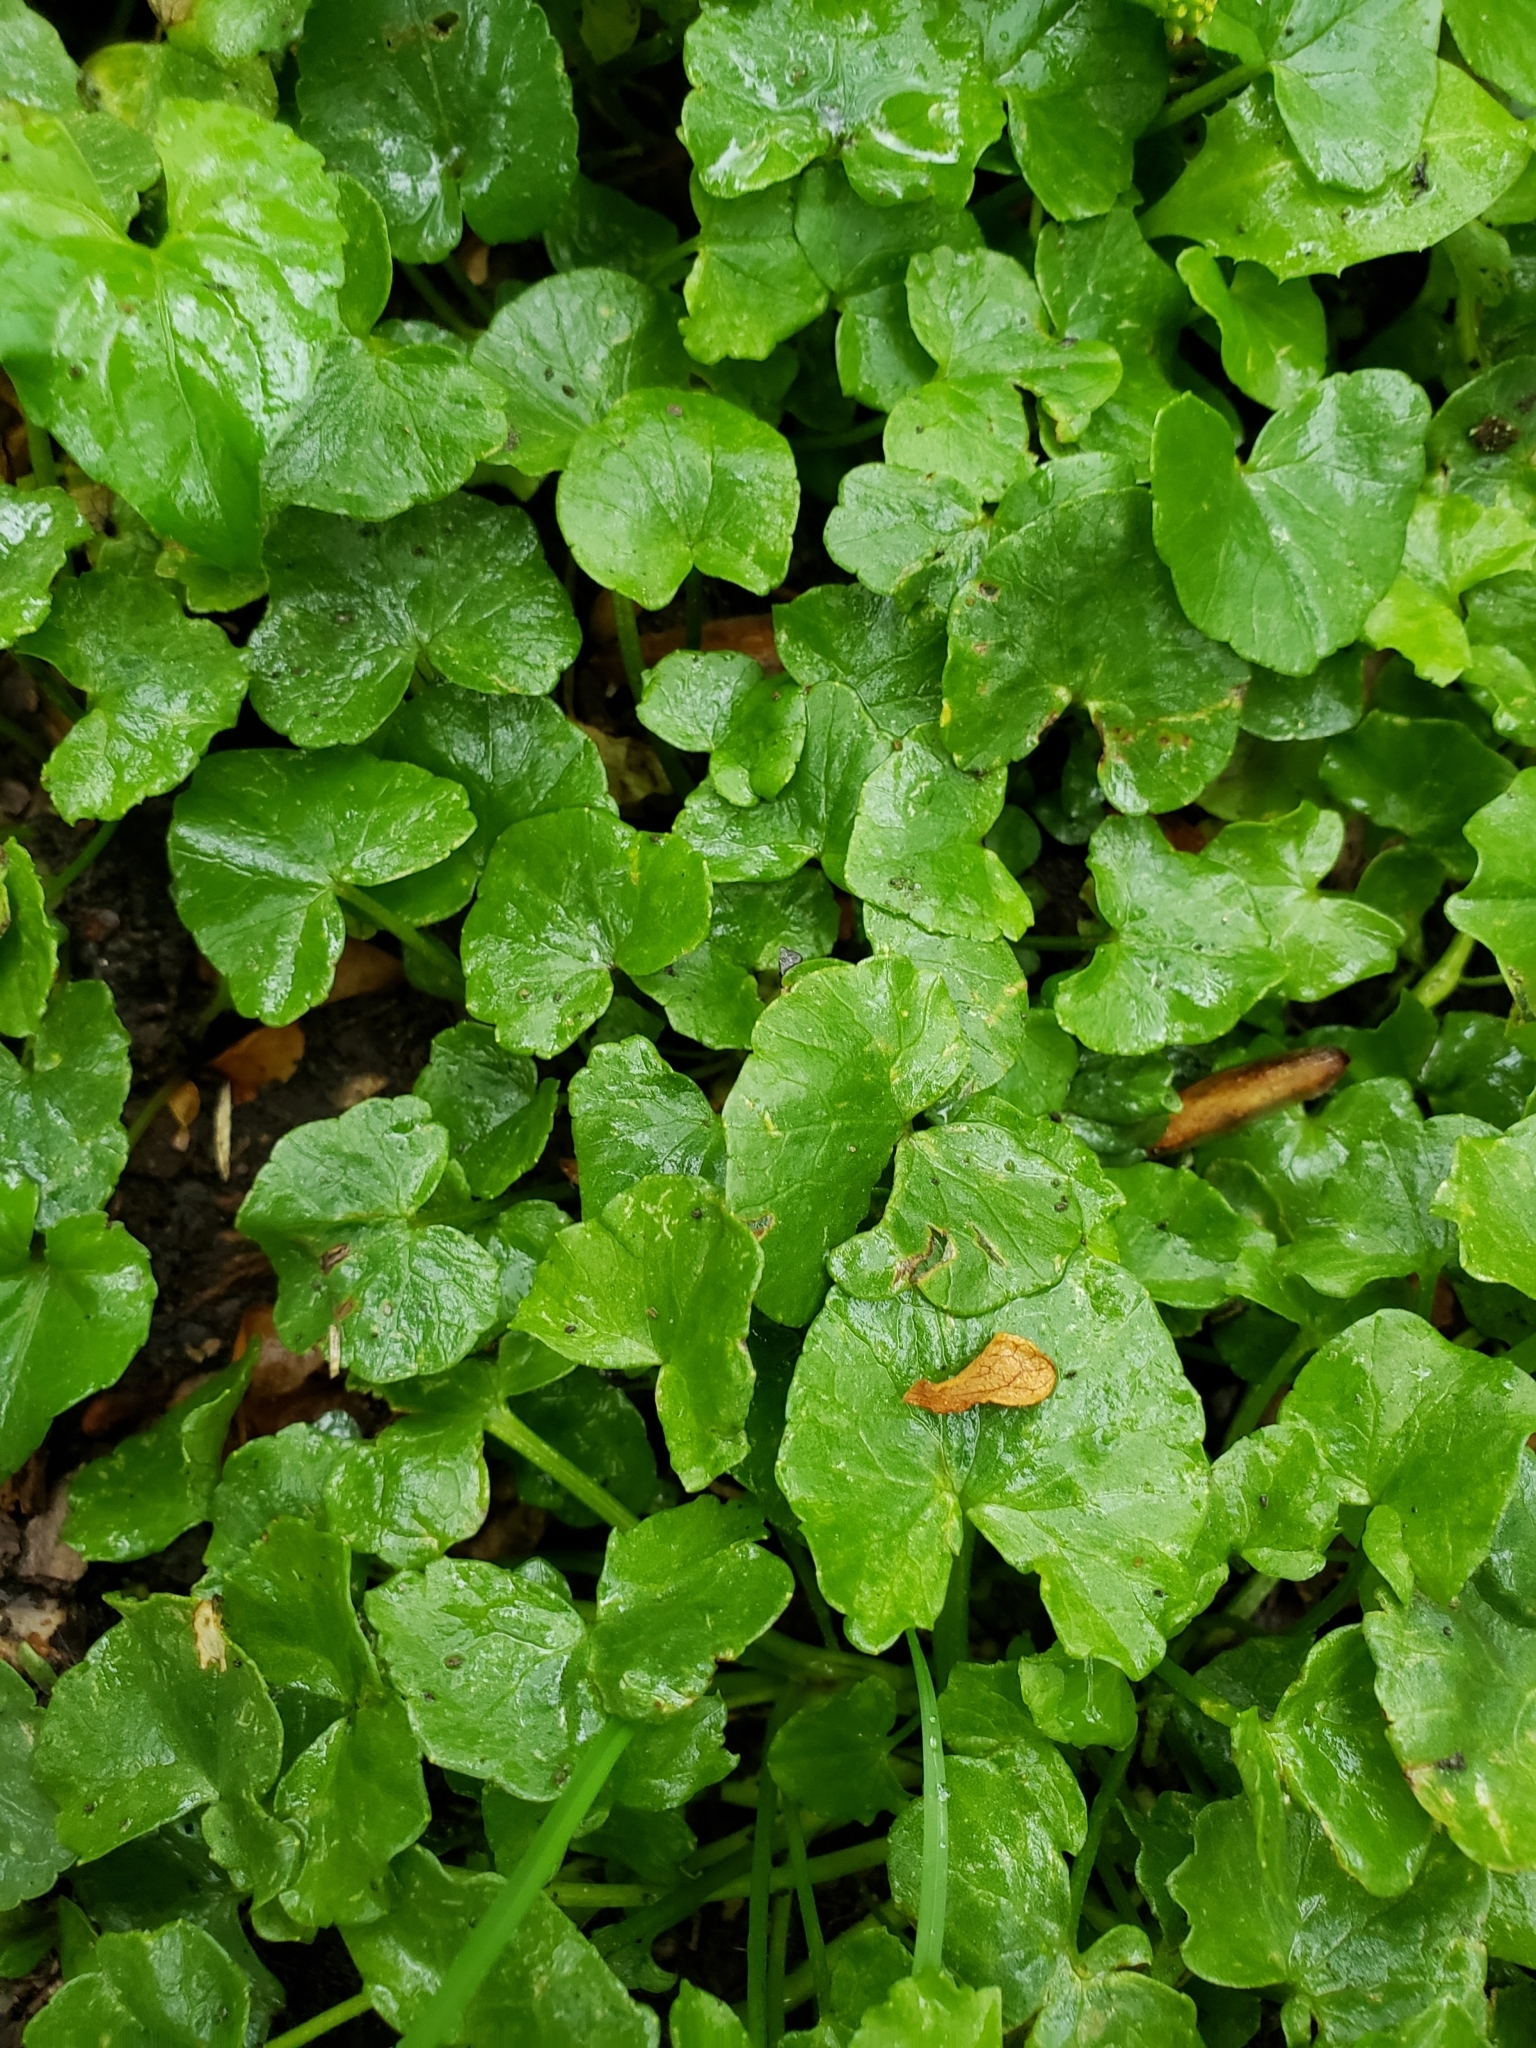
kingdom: Plantae
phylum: Tracheophyta
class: Magnoliopsida
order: Ranunculales
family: Ranunculaceae
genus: Ficaria
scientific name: Ficaria verna
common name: Lesser celandine
